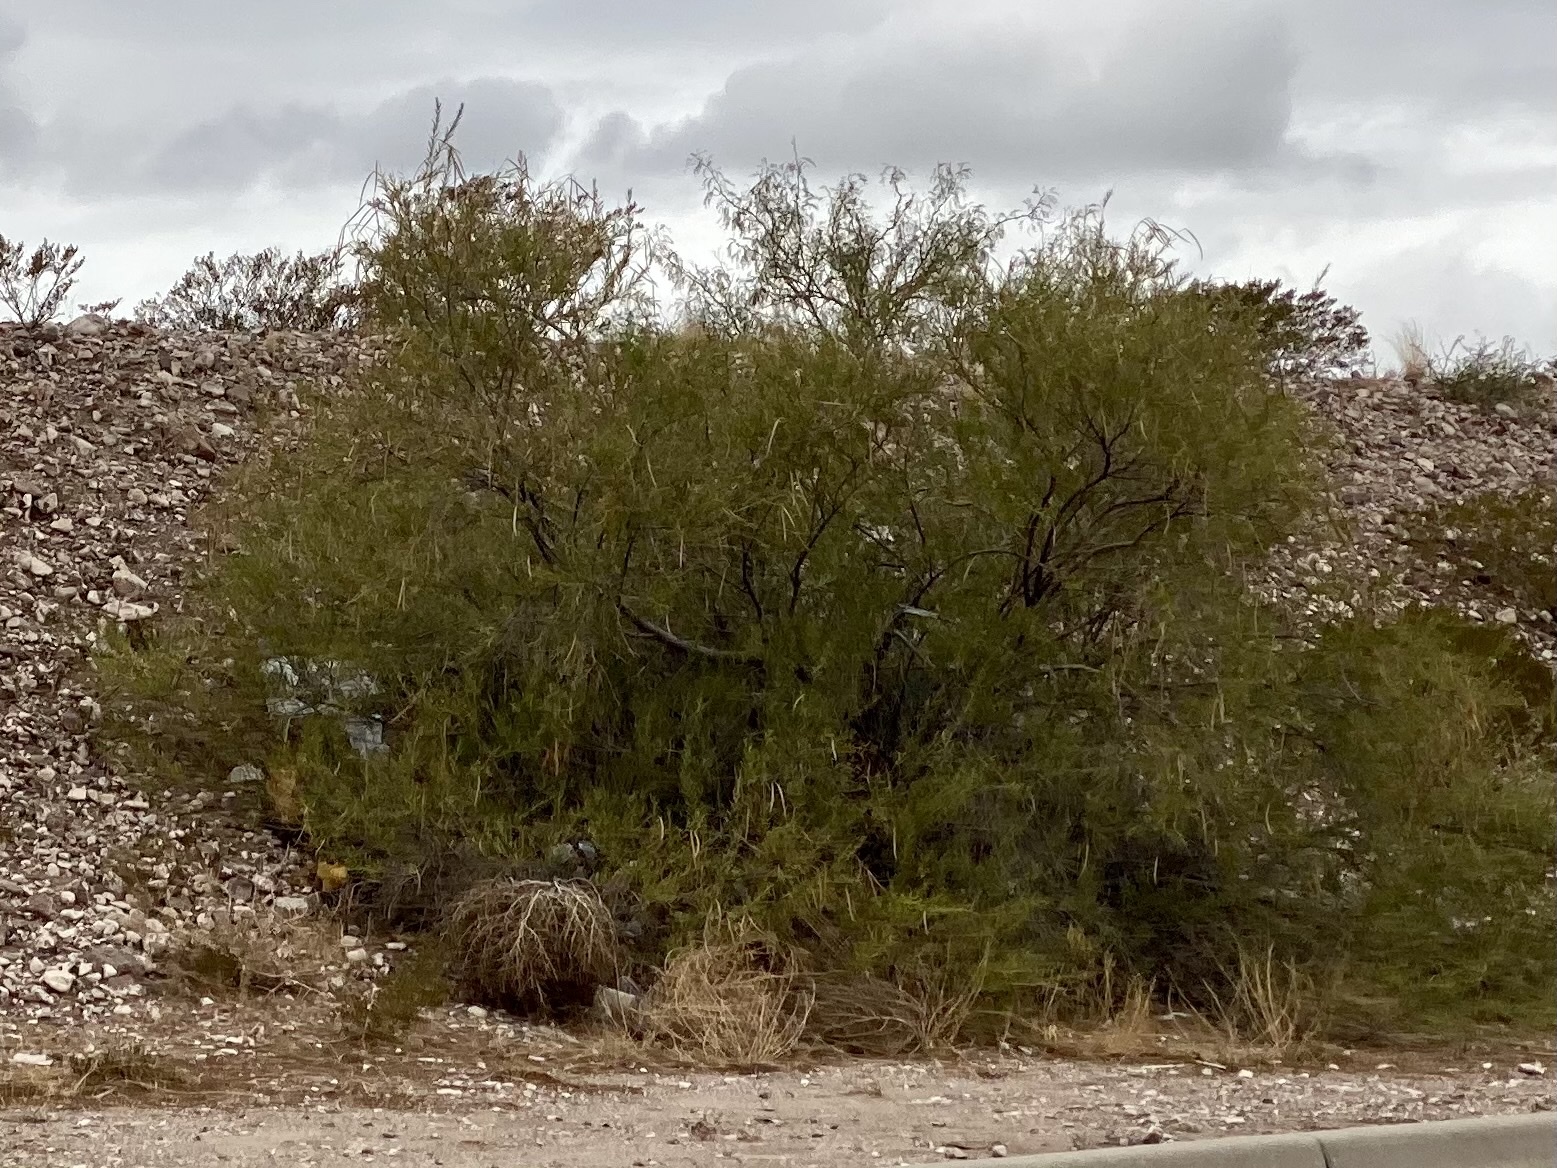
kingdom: Plantae
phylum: Tracheophyta
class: Magnoliopsida
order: Lamiales
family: Bignoniaceae
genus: Chilopsis
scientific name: Chilopsis linearis
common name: Desert-willow
